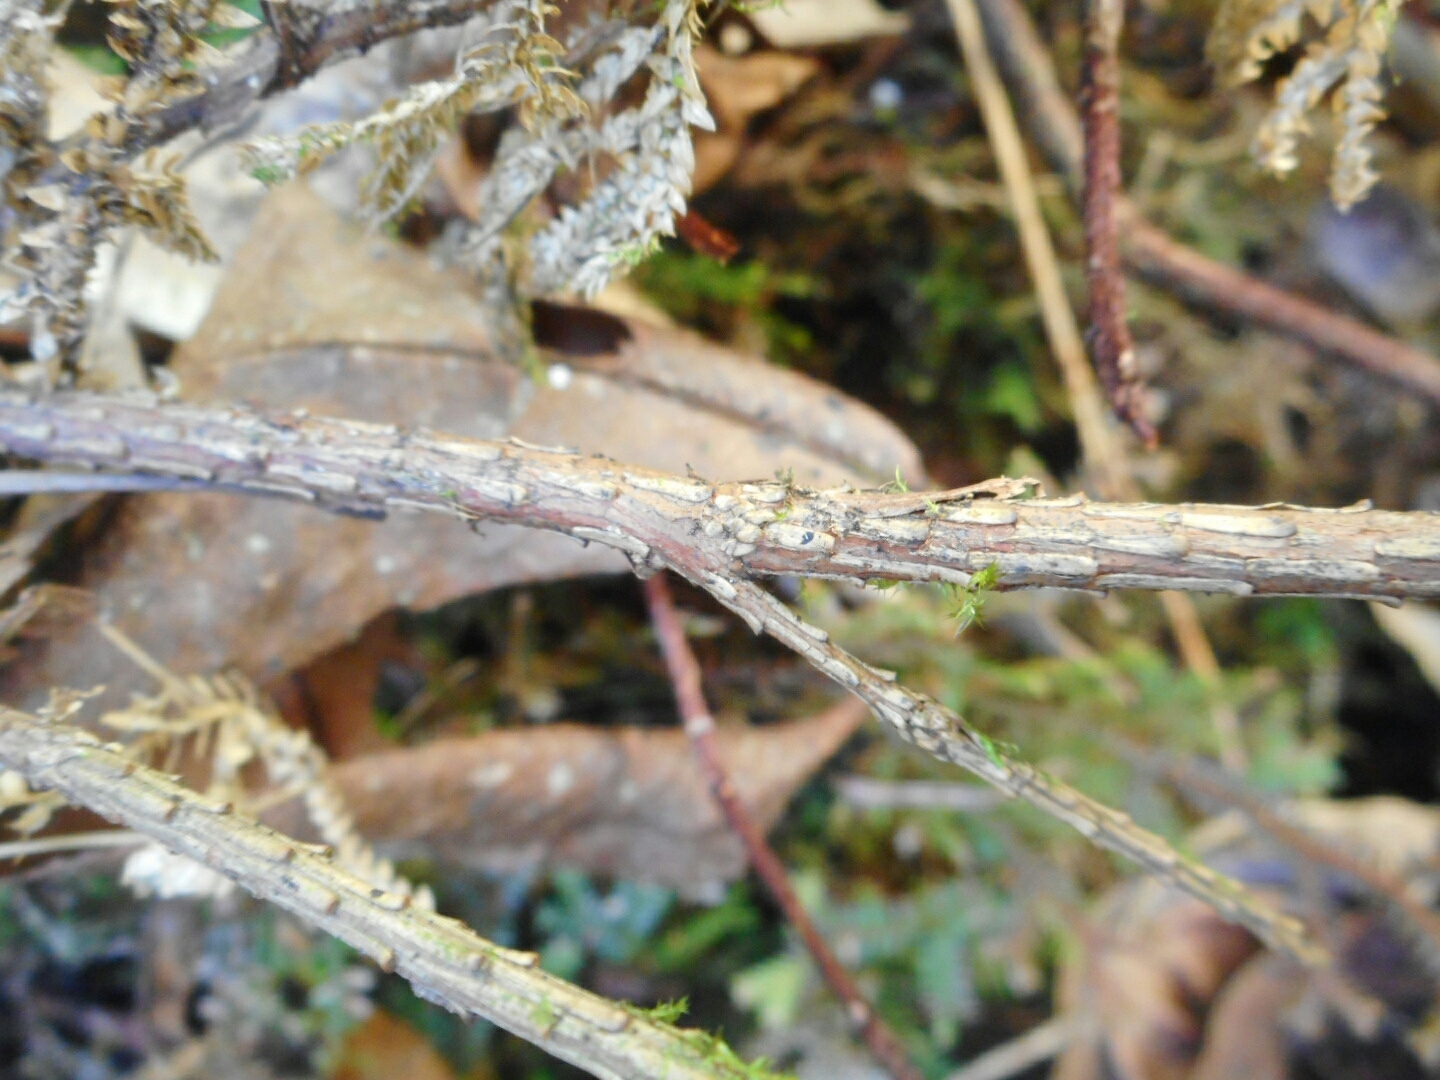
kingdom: Plantae
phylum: Tracheophyta
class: Pinopsida
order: Pinales
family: Pinaceae
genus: Tsuga
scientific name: Tsuga dumosa
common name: Himalayan hemlock
